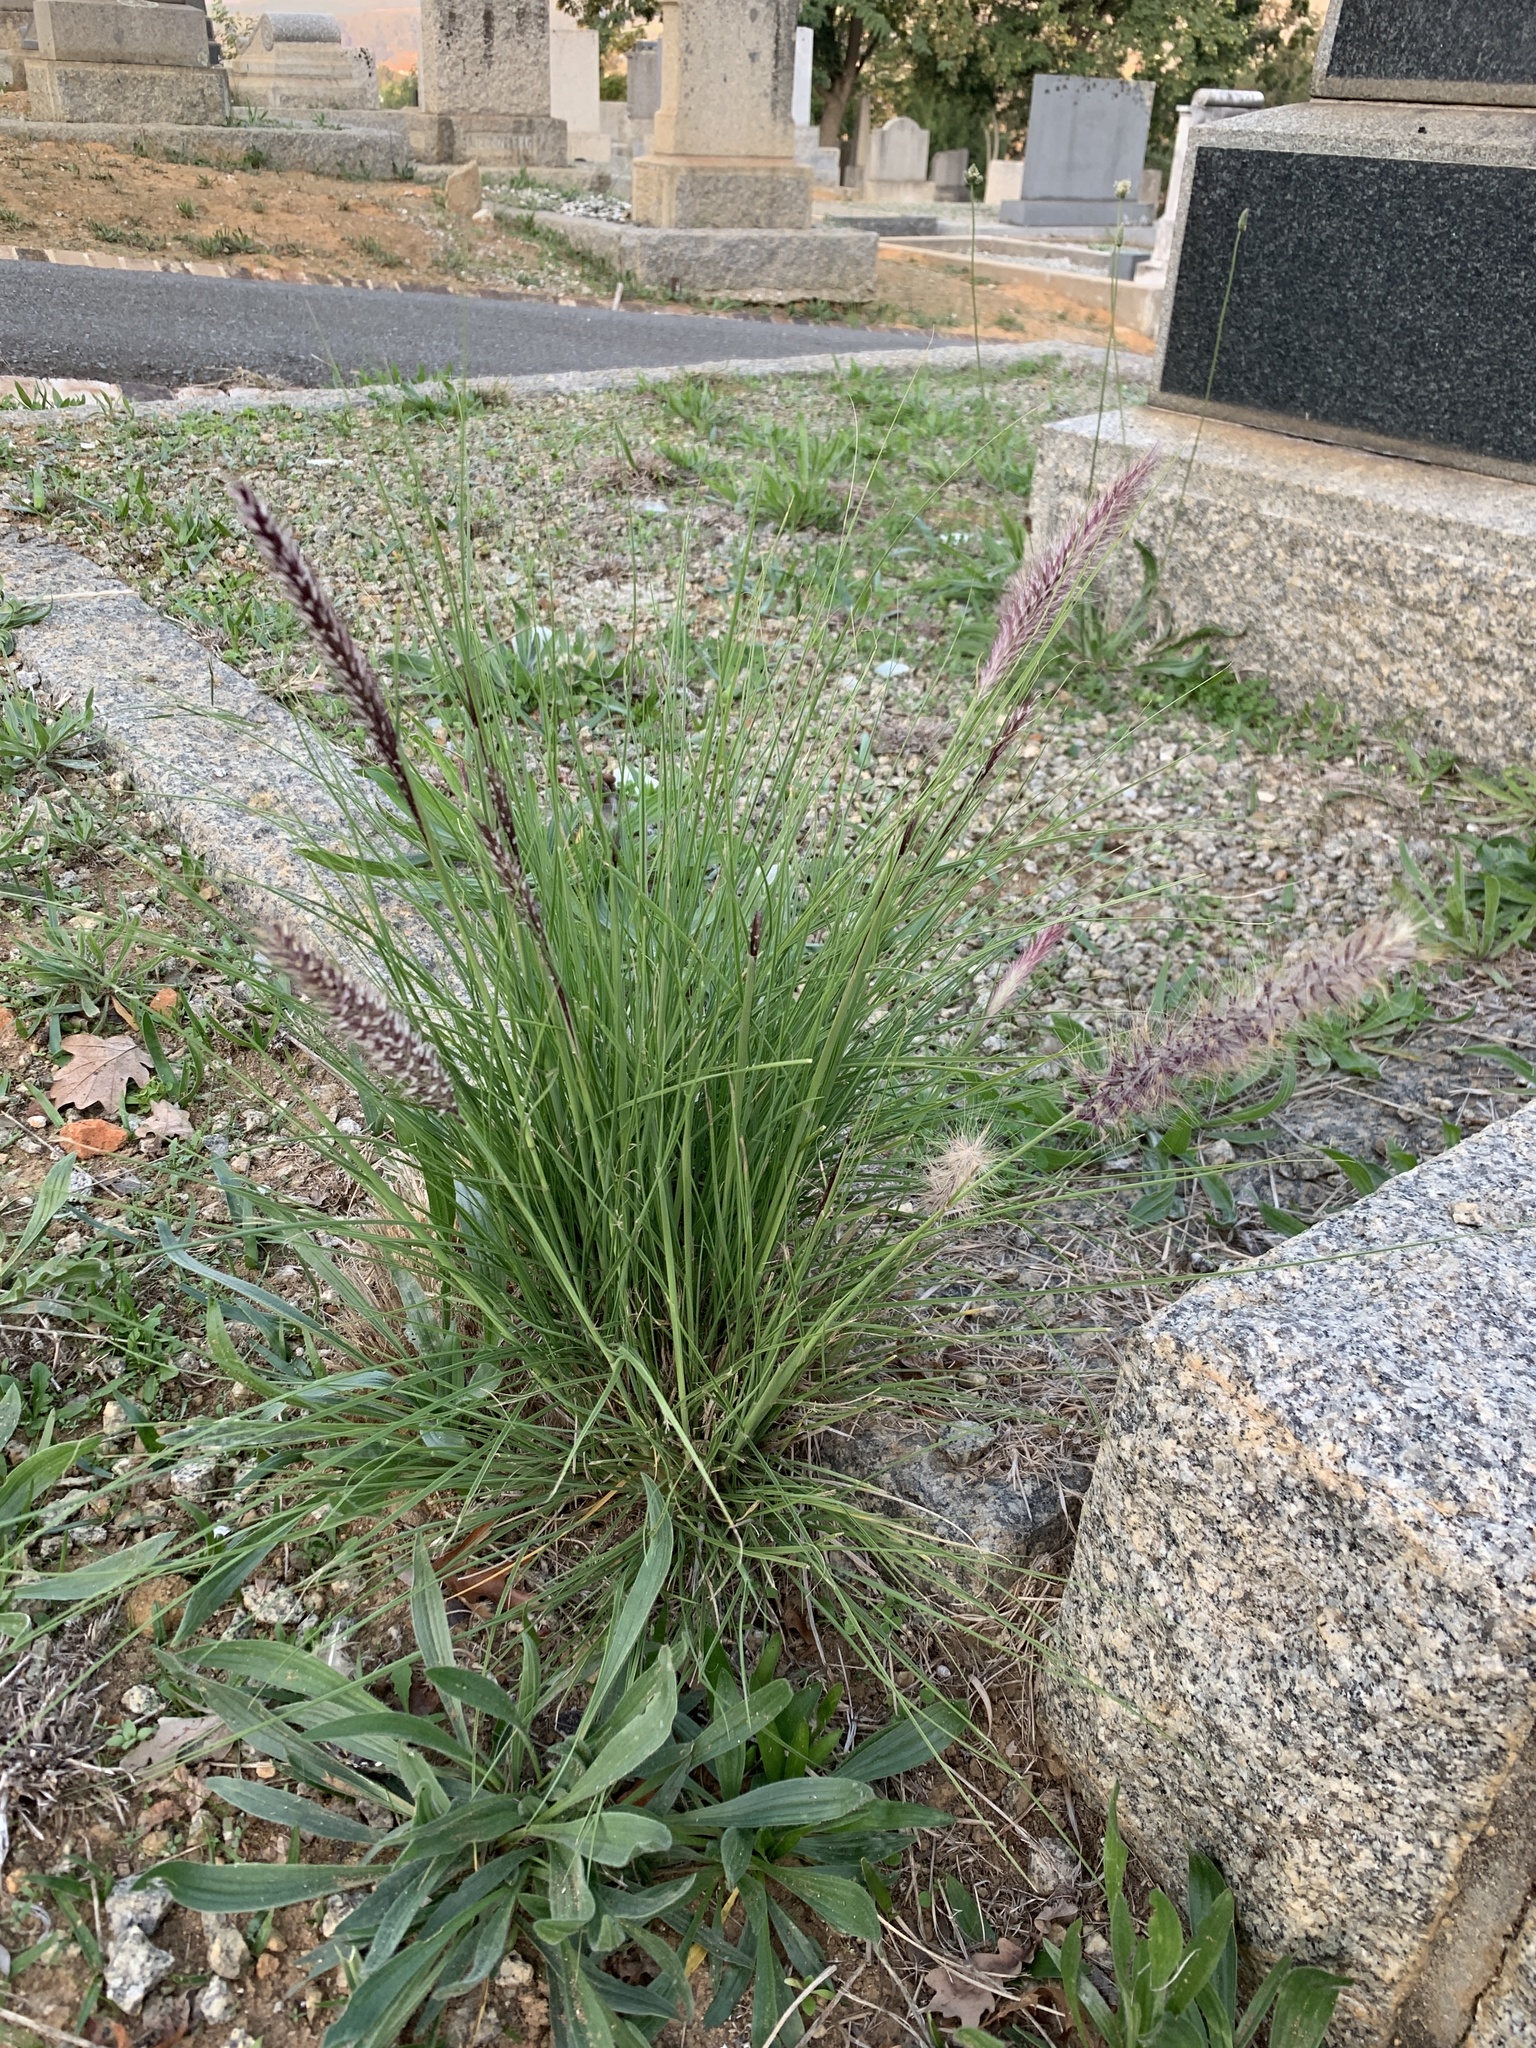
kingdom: Plantae
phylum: Tracheophyta
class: Liliopsida
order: Poales
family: Poaceae
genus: Cenchrus
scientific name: Cenchrus setaceus
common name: Crimson fountaingrass
